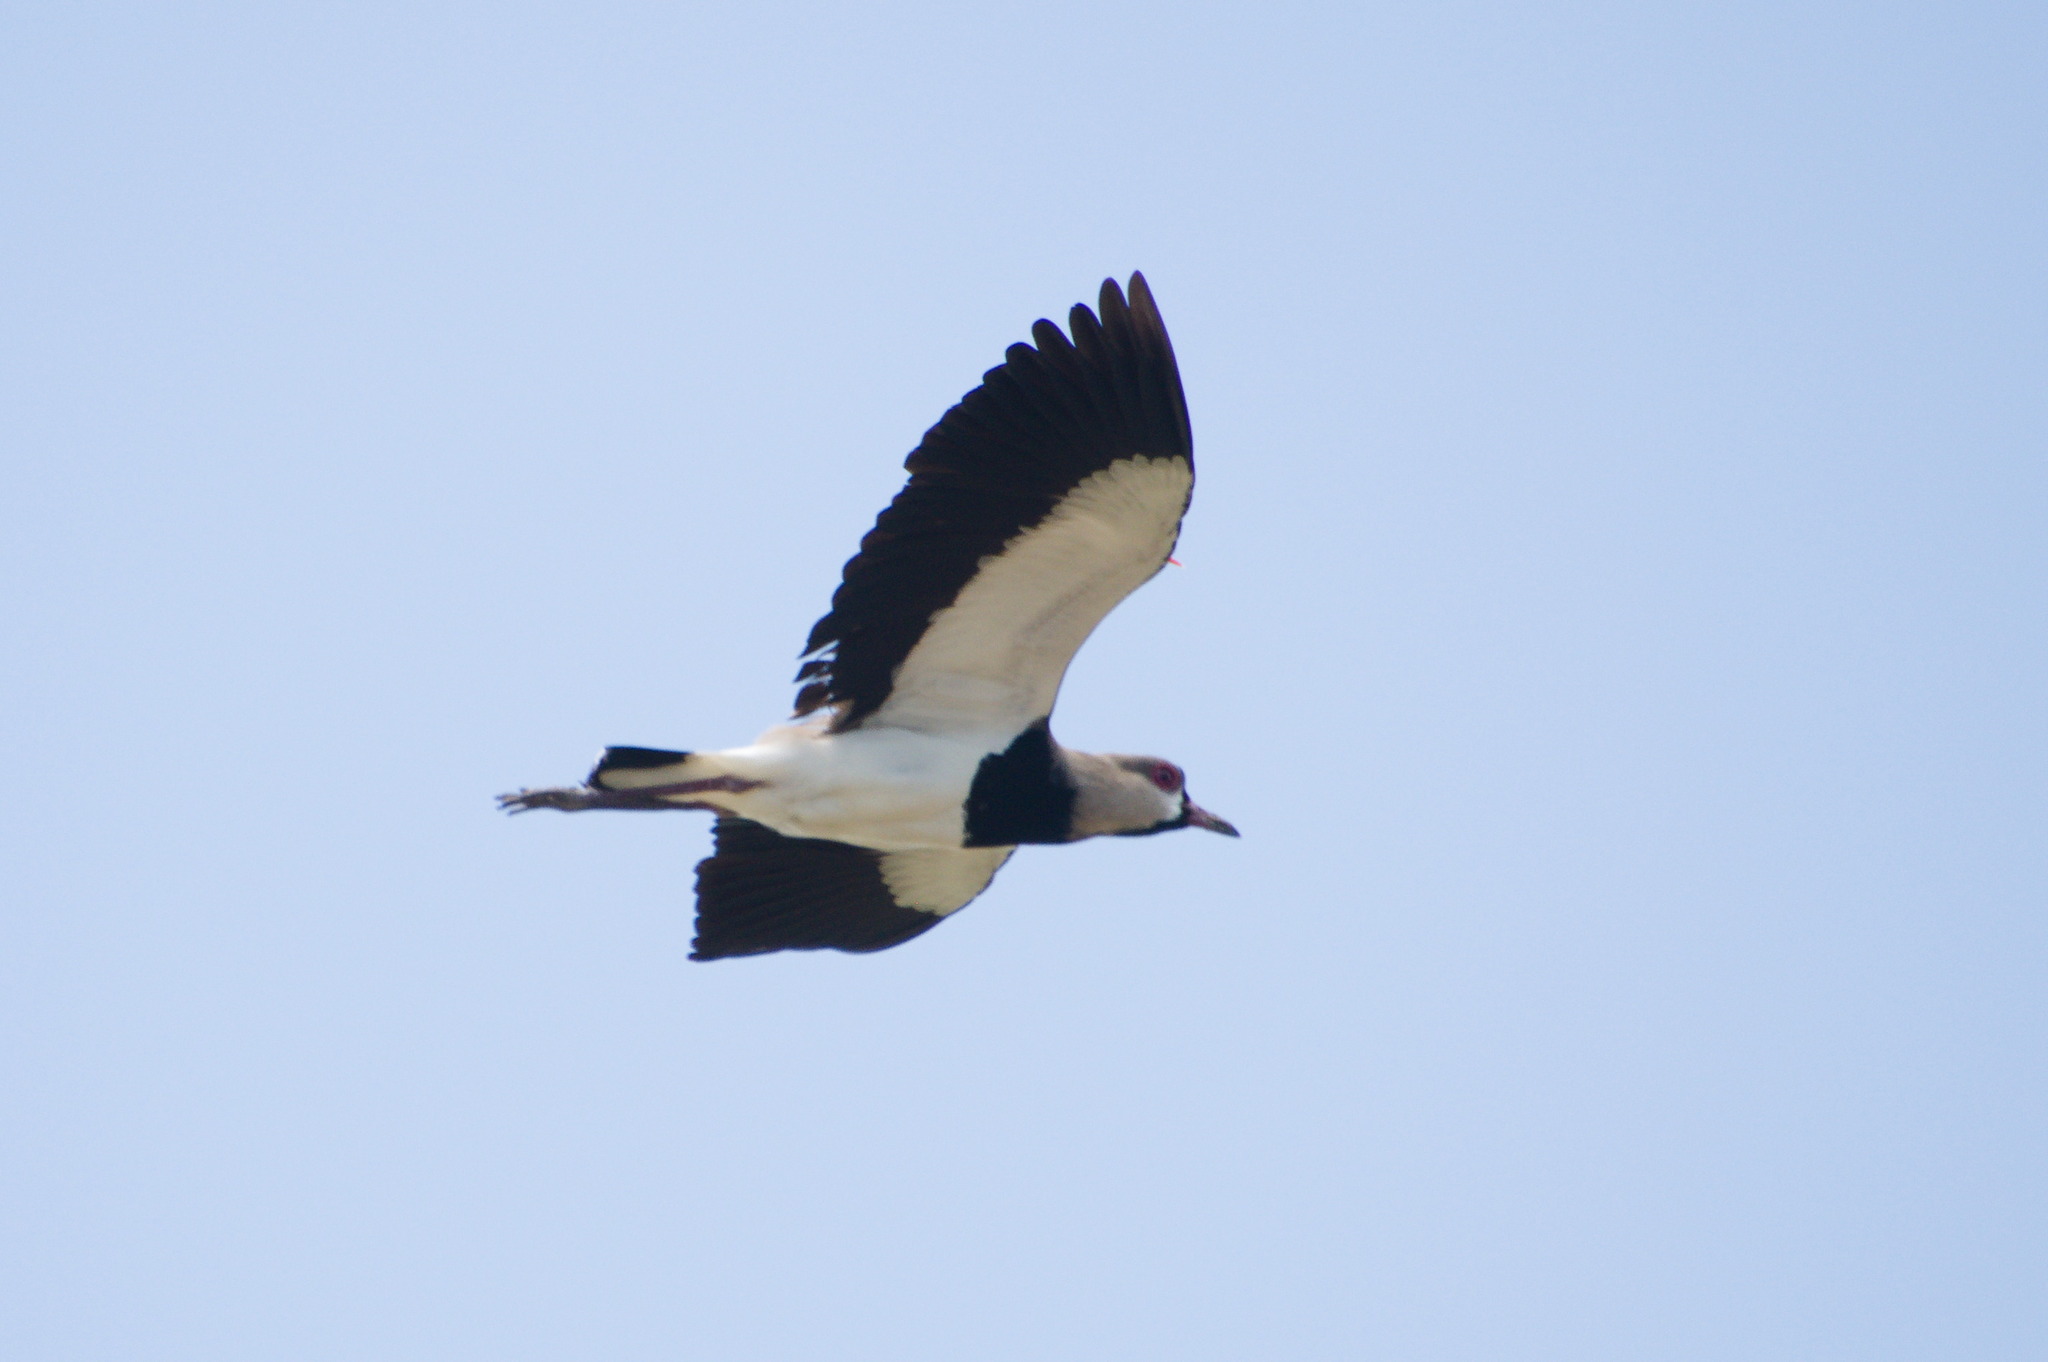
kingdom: Animalia
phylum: Chordata
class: Aves
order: Charadriiformes
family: Charadriidae
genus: Vanellus
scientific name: Vanellus chilensis
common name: Southern lapwing
